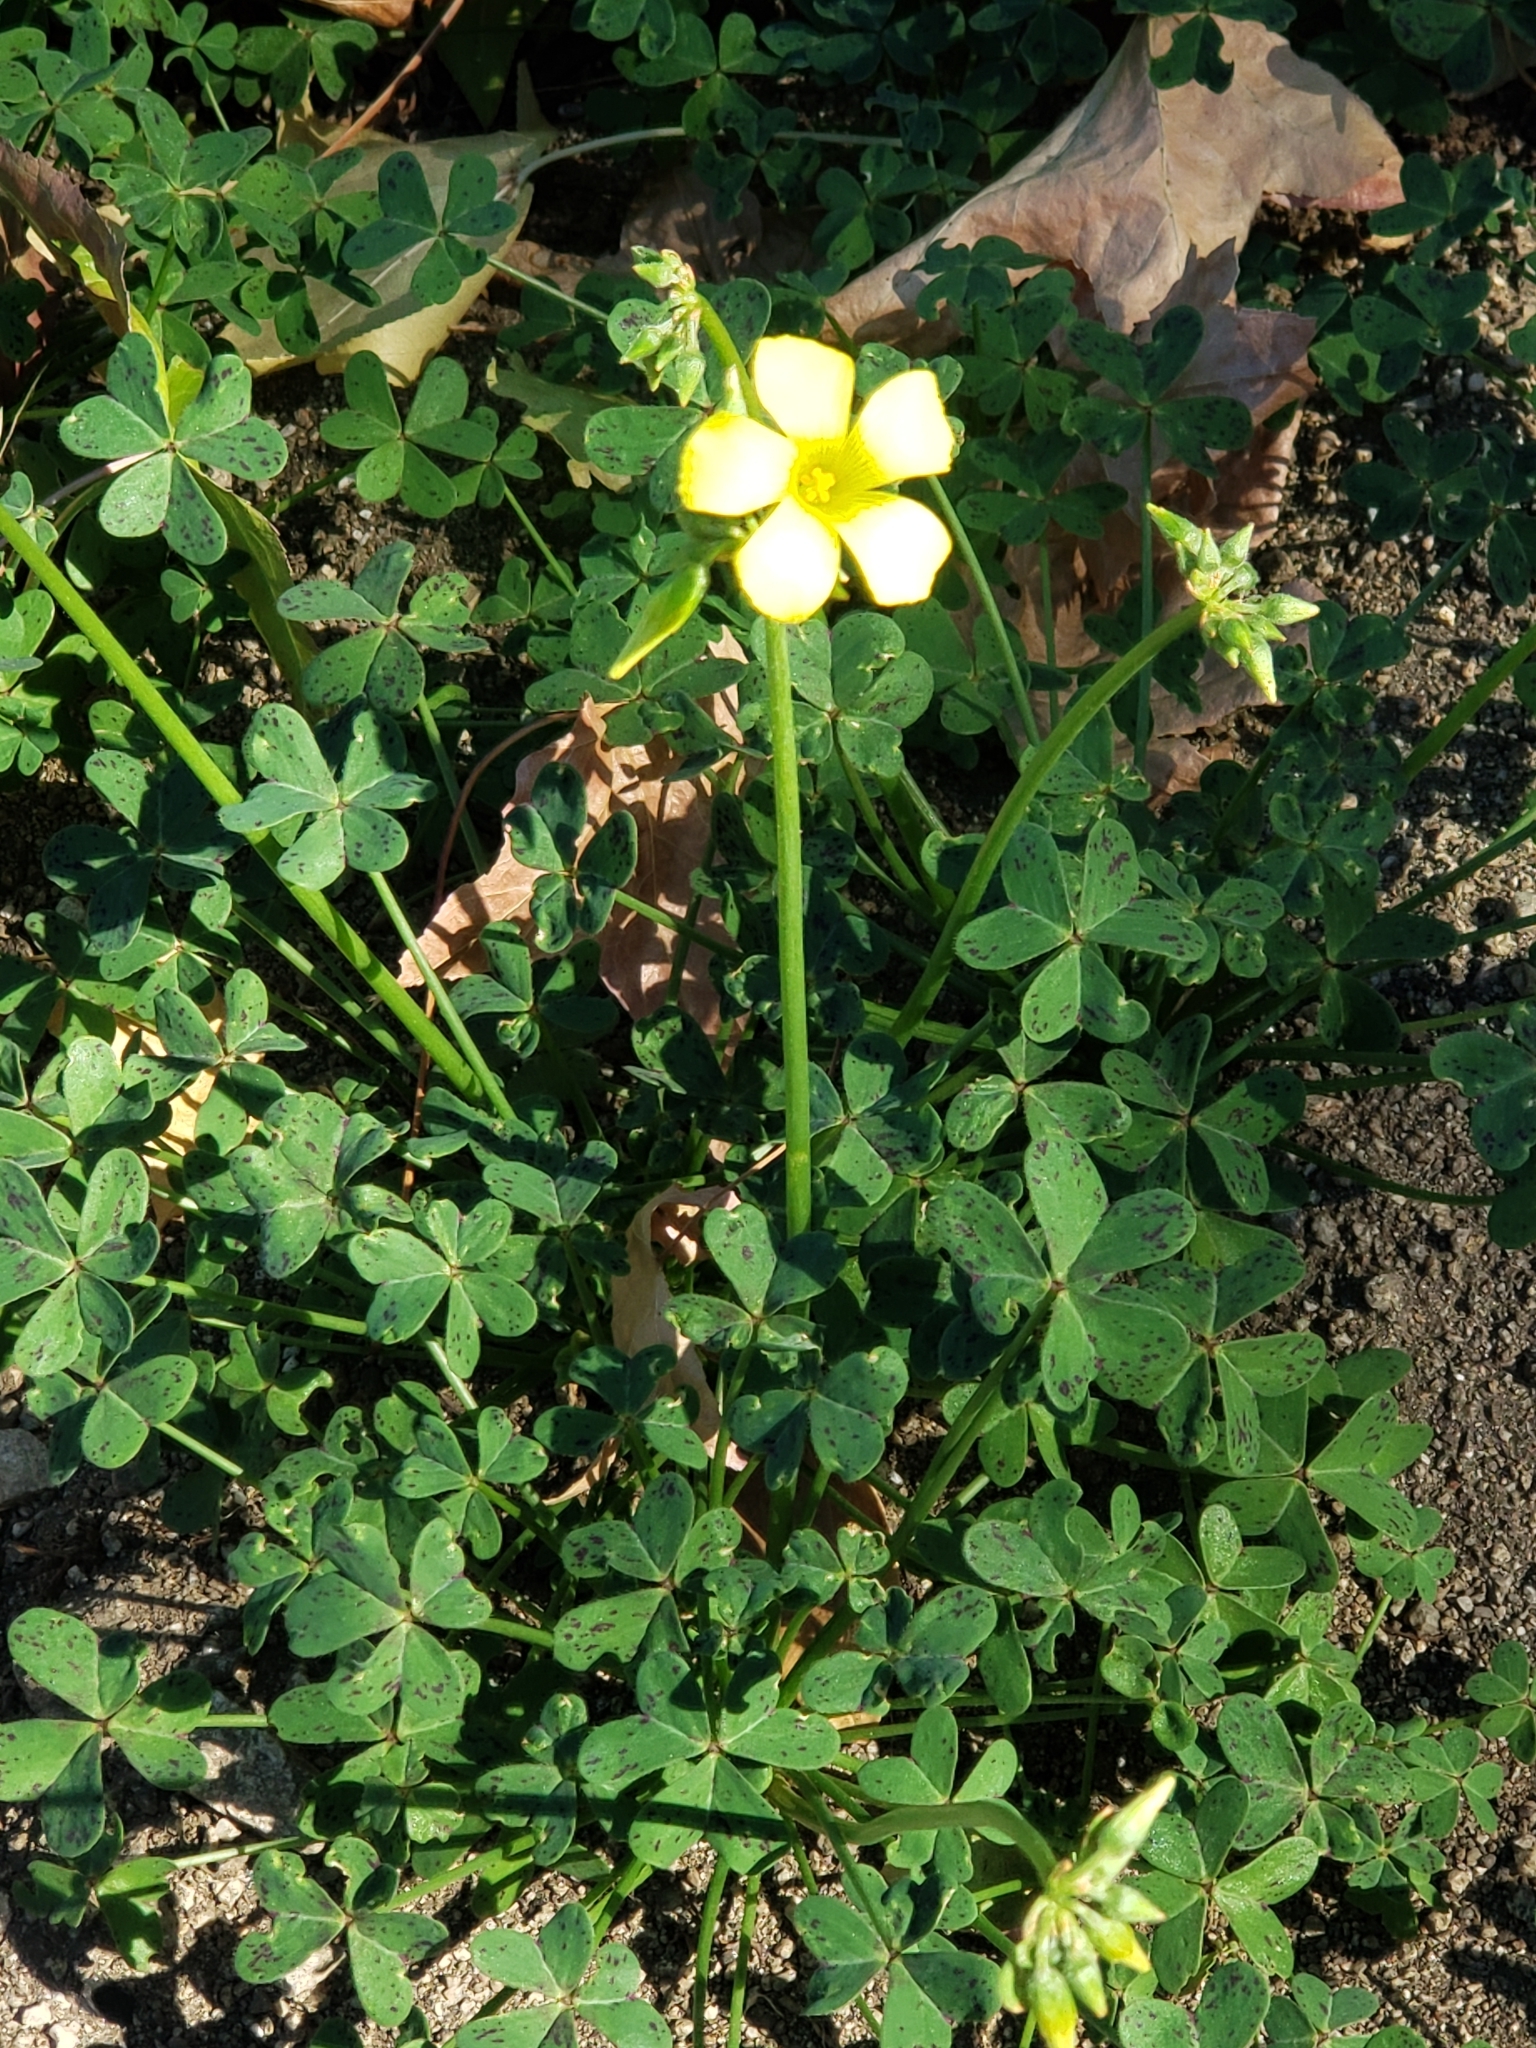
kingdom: Plantae
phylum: Tracheophyta
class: Magnoliopsida
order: Oxalidales
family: Oxalidaceae
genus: Oxalis
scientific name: Oxalis pes-caprae
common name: Bermuda-buttercup
